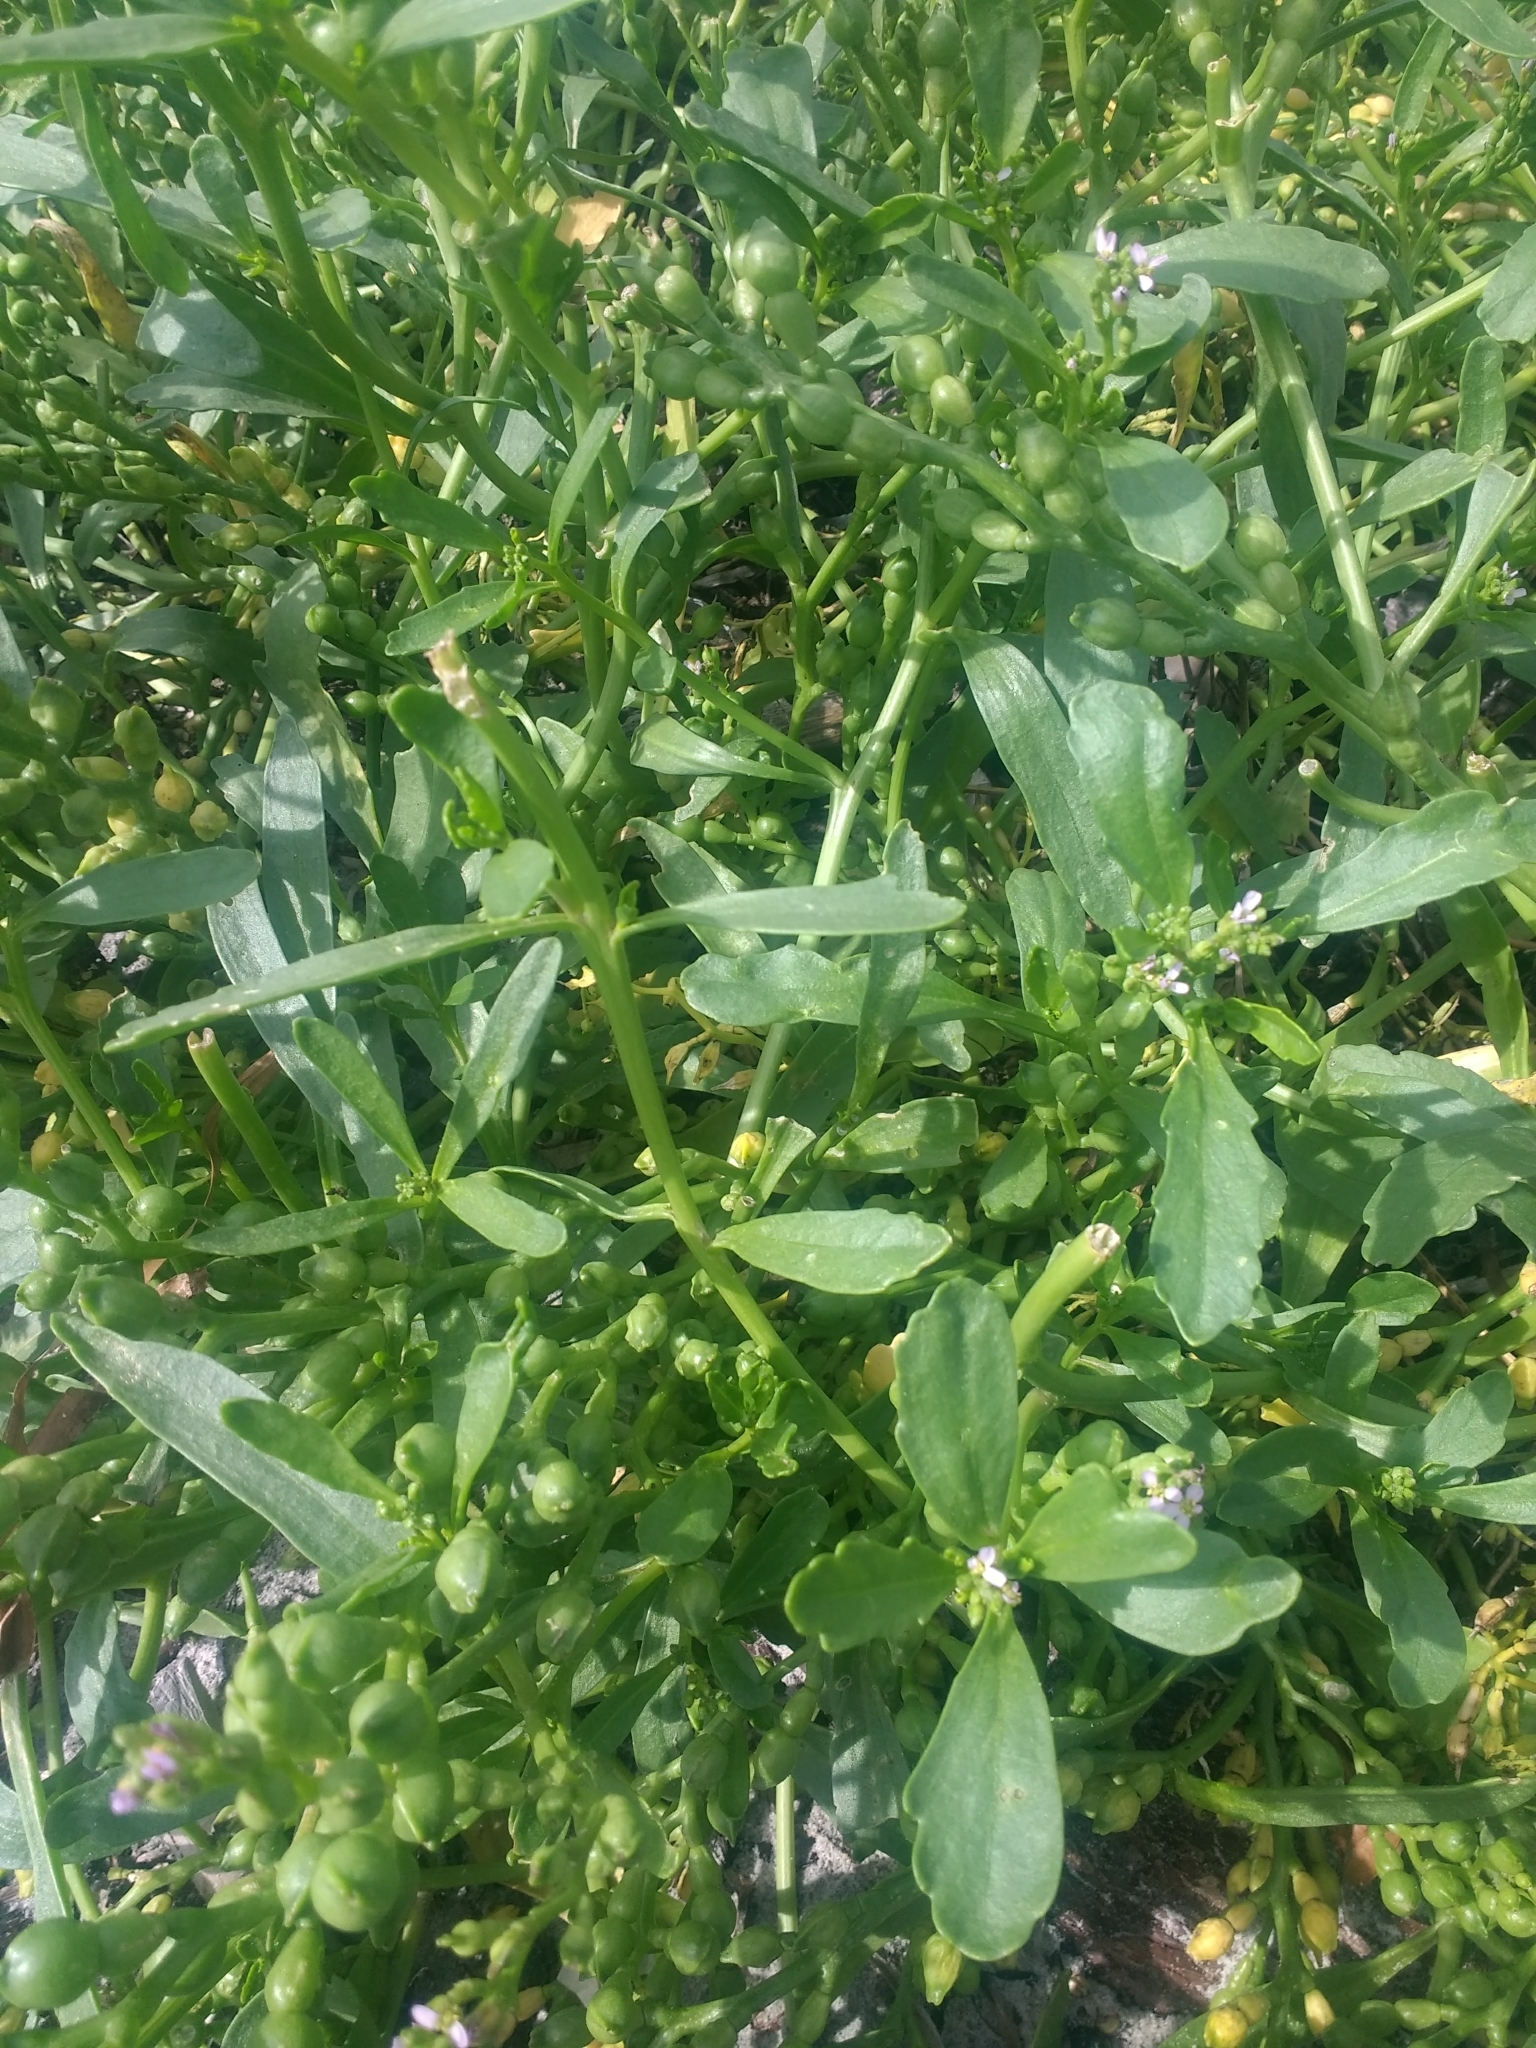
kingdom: Plantae
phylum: Tracheophyta
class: Magnoliopsida
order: Brassicales
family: Brassicaceae
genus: Cakile
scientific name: Cakile edentula
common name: American sea rocket
